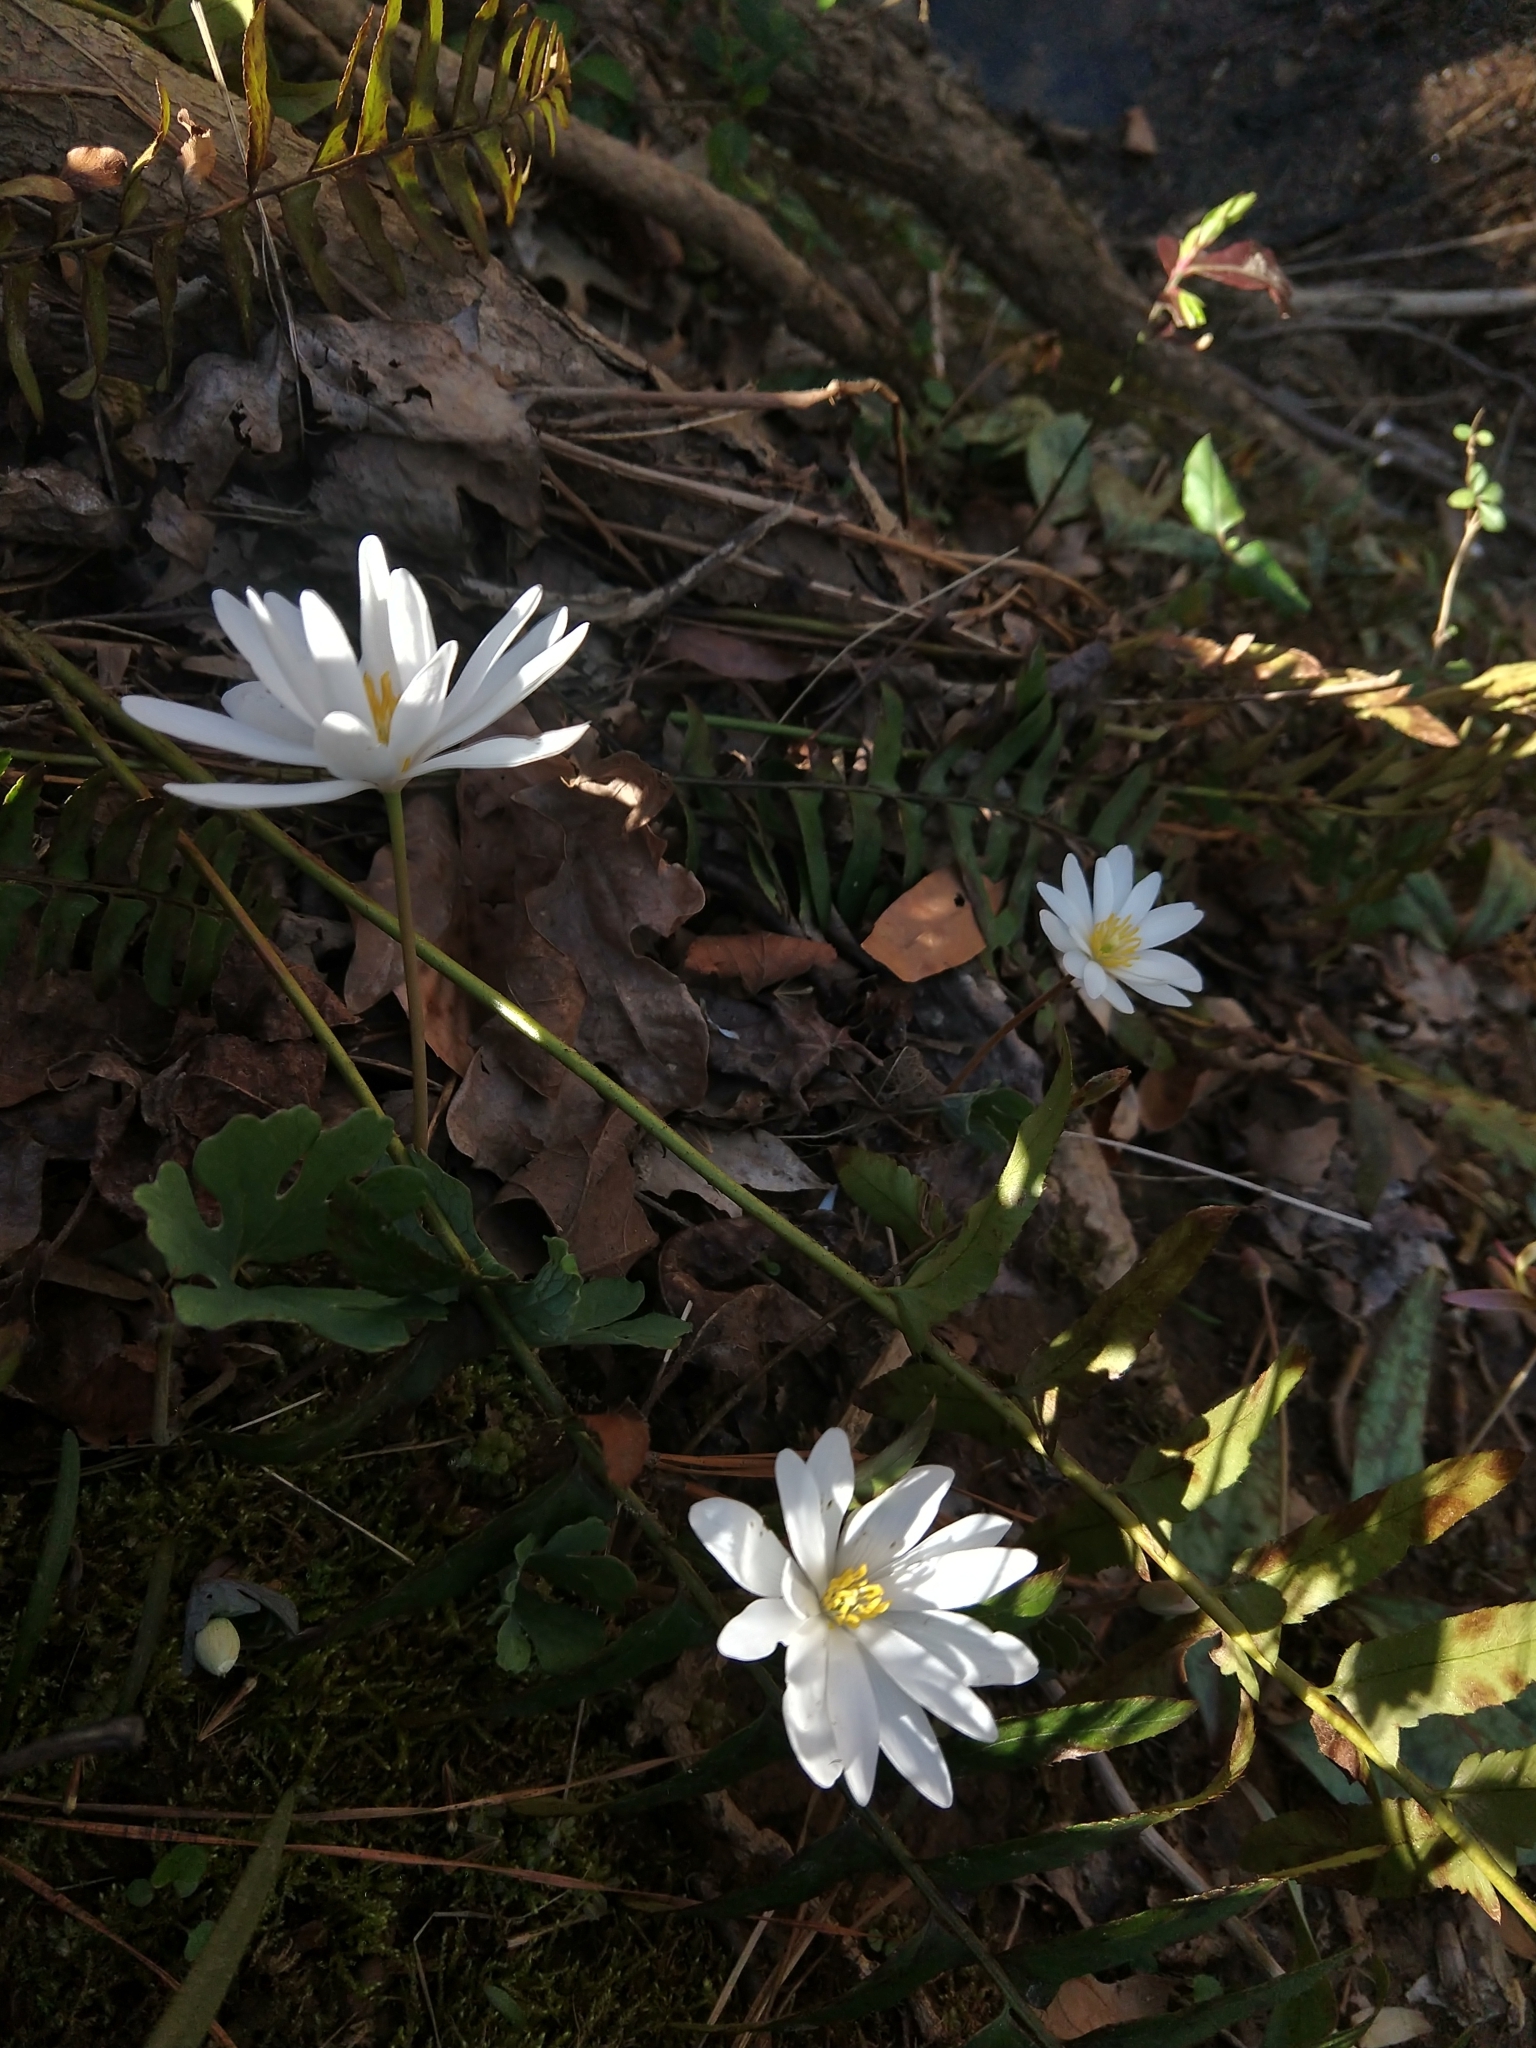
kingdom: Plantae
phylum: Tracheophyta
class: Magnoliopsida
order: Ranunculales
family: Papaveraceae
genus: Sanguinaria
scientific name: Sanguinaria canadensis
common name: Bloodroot
